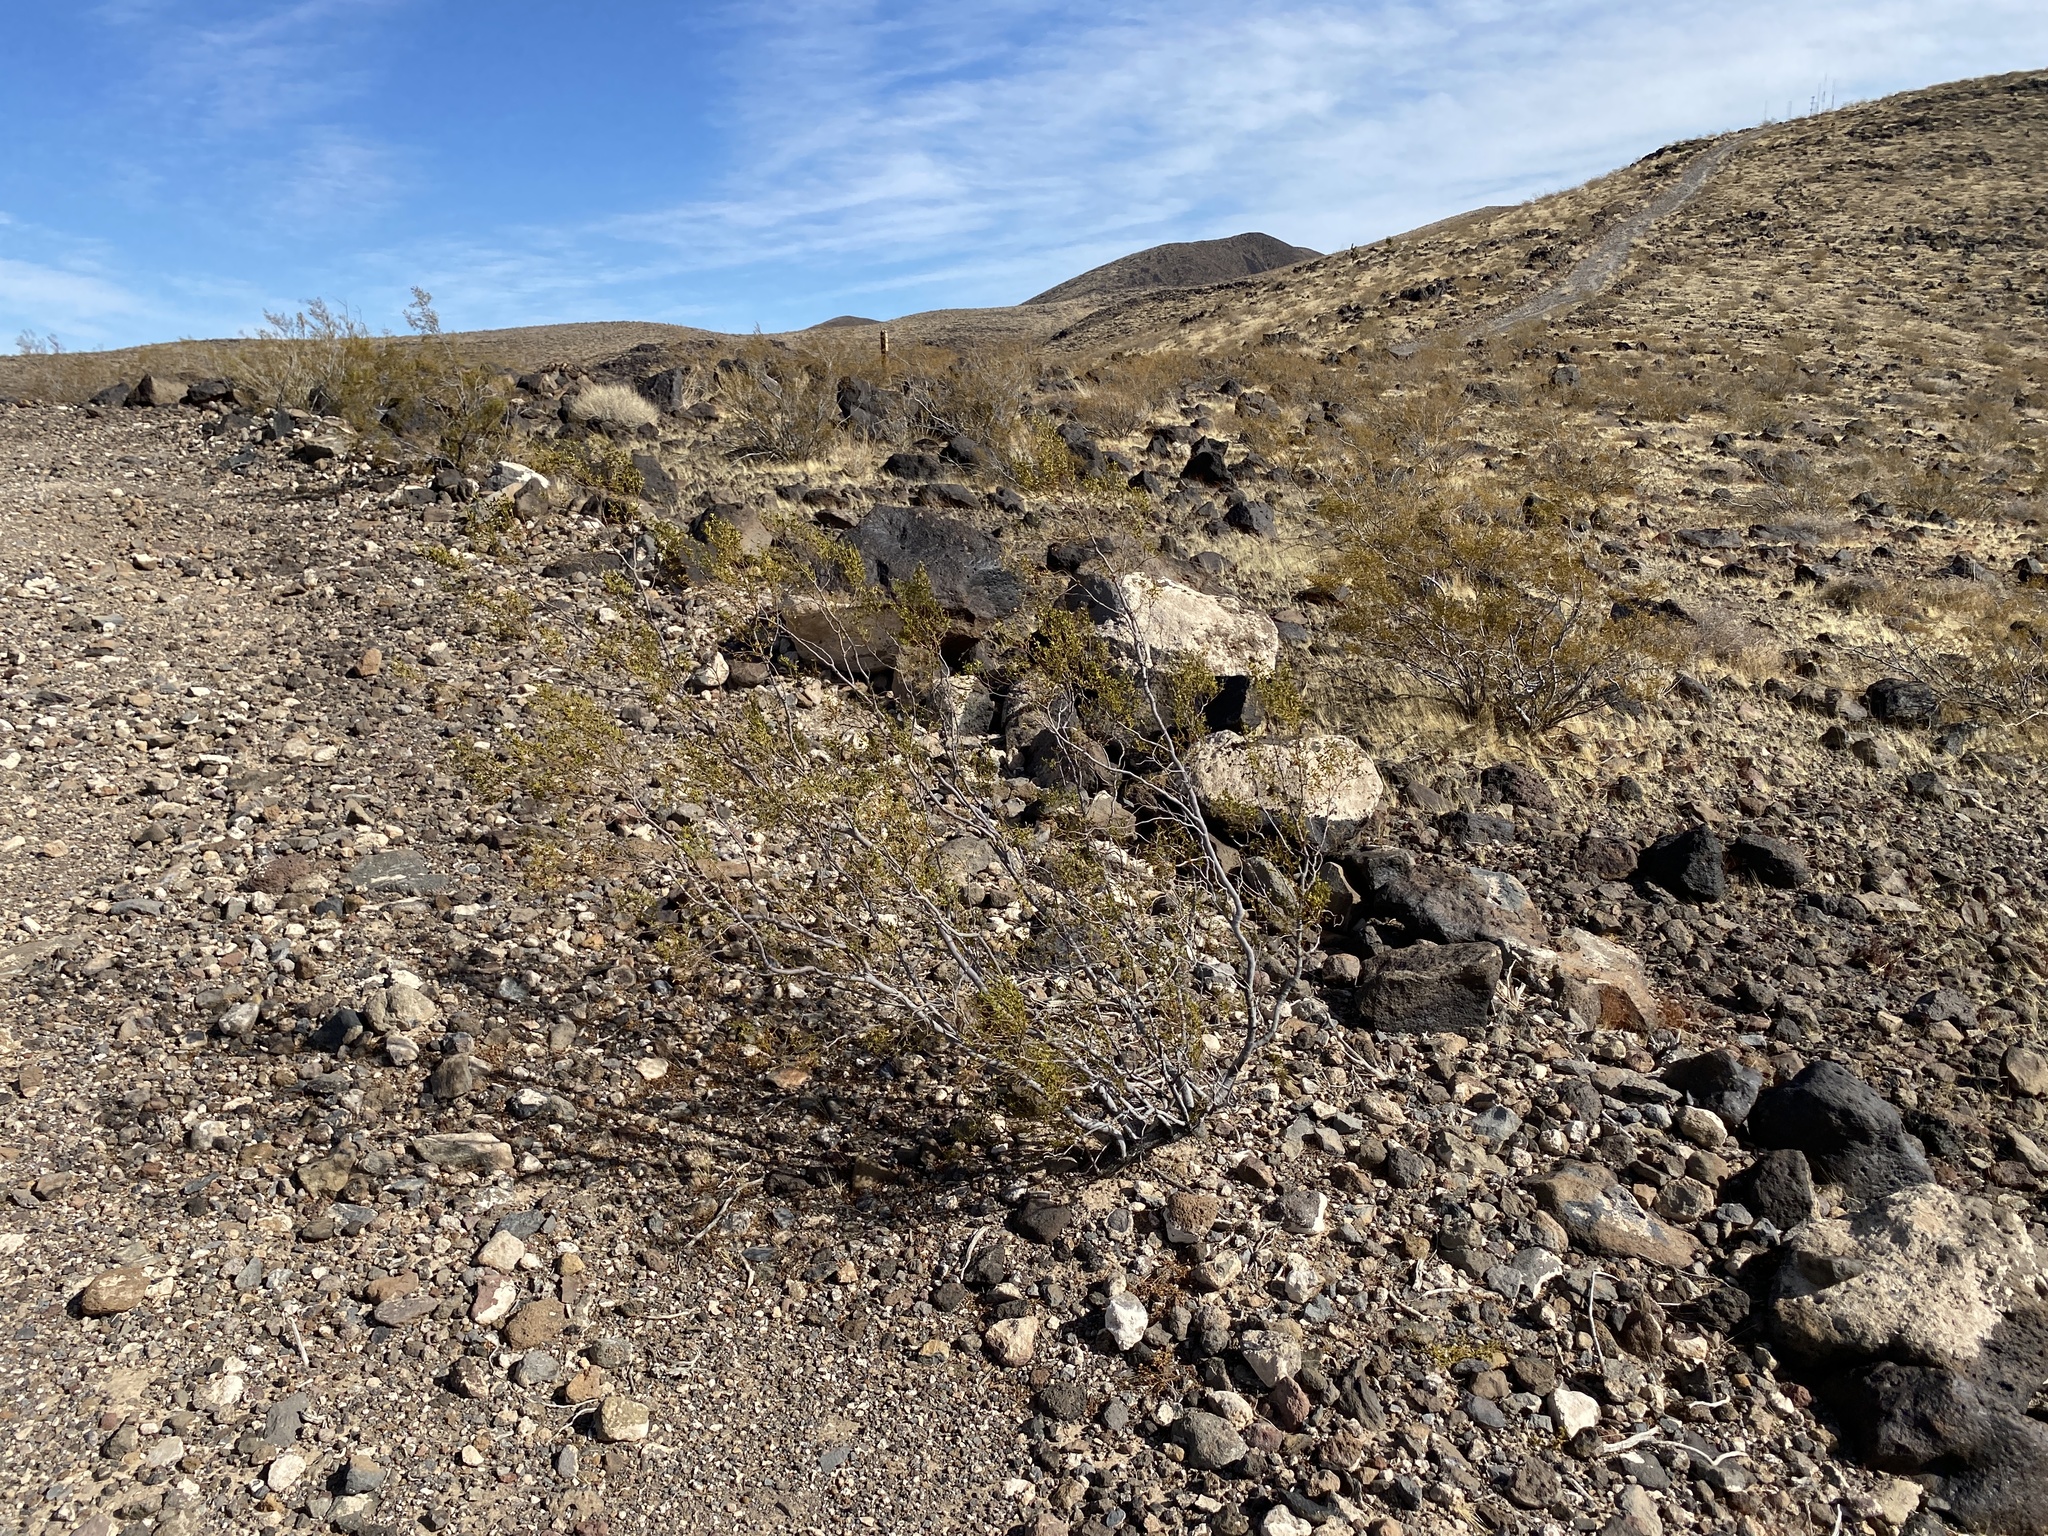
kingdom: Plantae
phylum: Tracheophyta
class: Magnoliopsida
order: Zygophyllales
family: Zygophyllaceae
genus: Larrea
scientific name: Larrea tridentata
